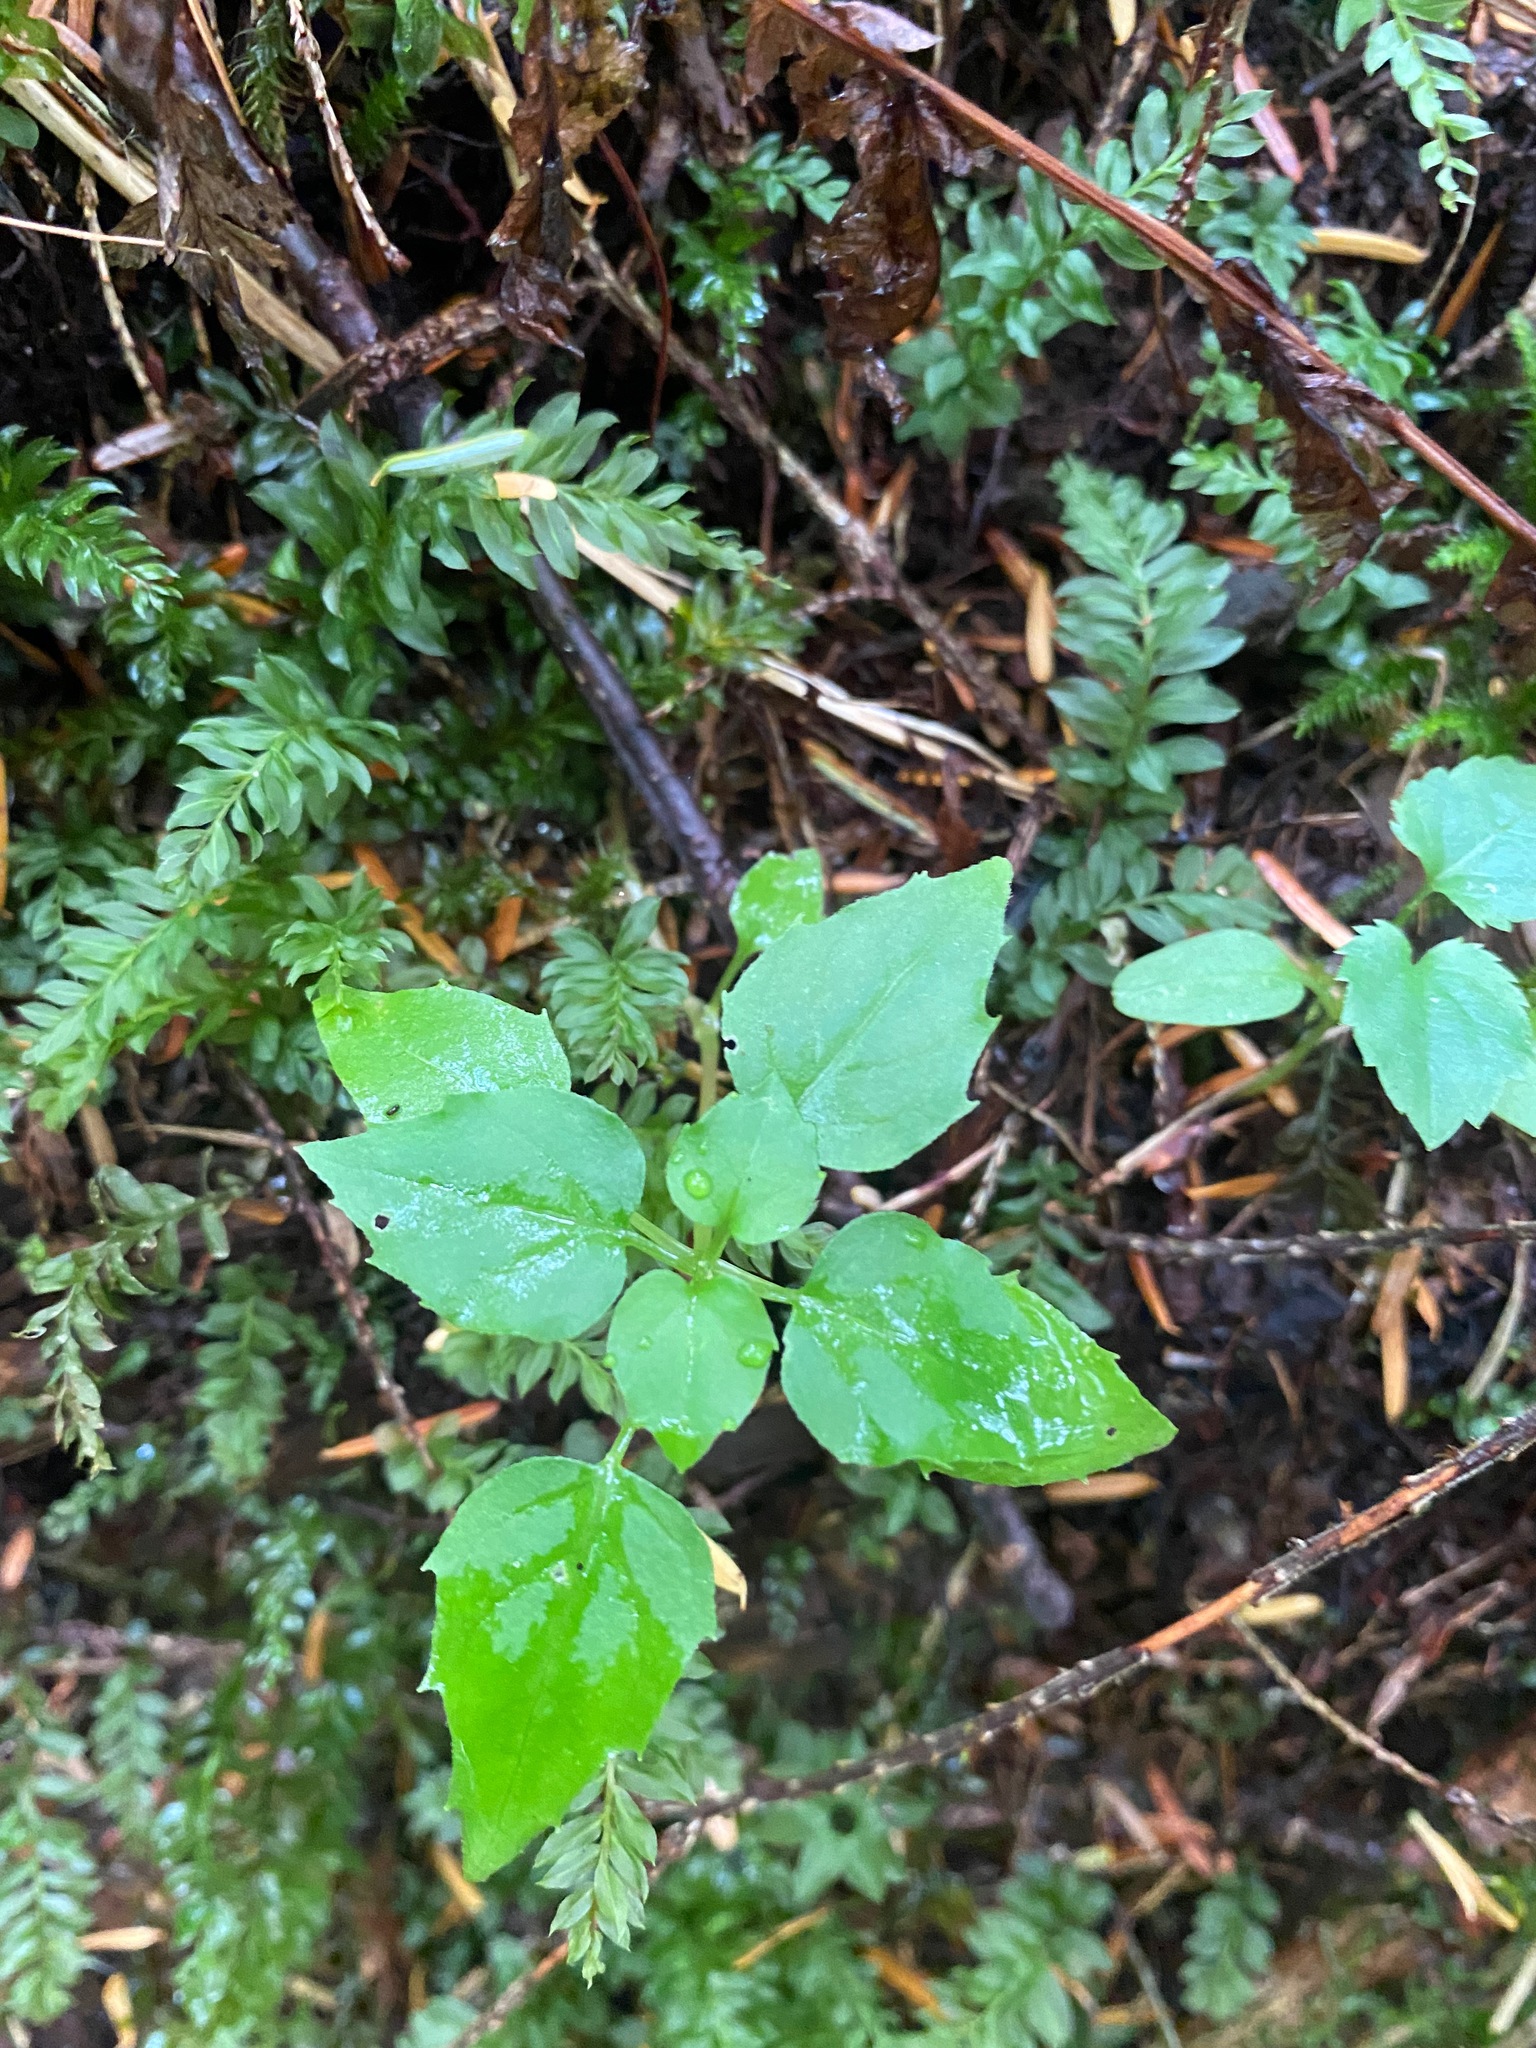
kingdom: Plantae
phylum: Tracheophyta
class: Magnoliopsida
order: Myrtales
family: Onagraceae
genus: Circaea
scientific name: Circaea alpina
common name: Alpine enchanter's-nightshade
